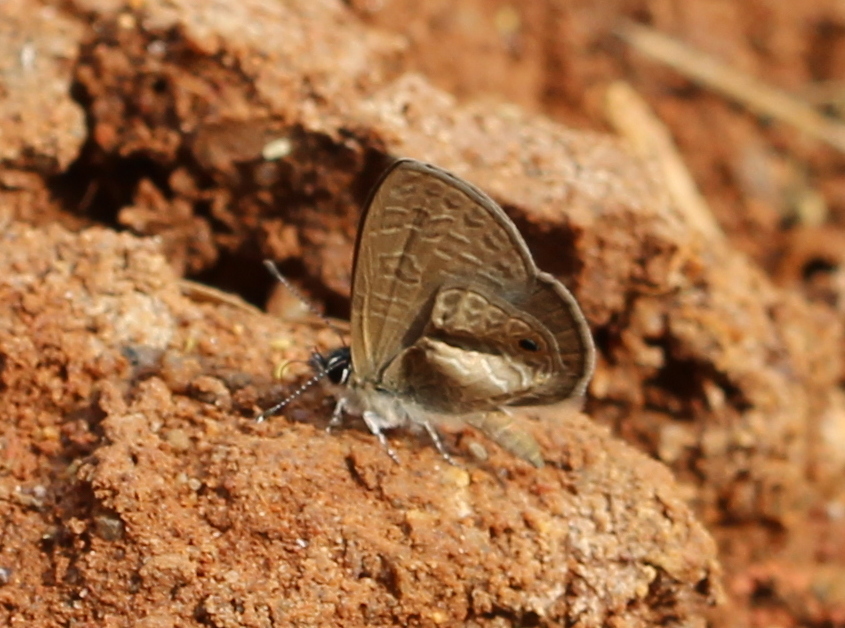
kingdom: Animalia
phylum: Arthropoda
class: Insecta
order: Lepidoptera
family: Lycaenidae
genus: Prosotas
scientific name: Prosotas dubiosa
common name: Tailless lineblue
